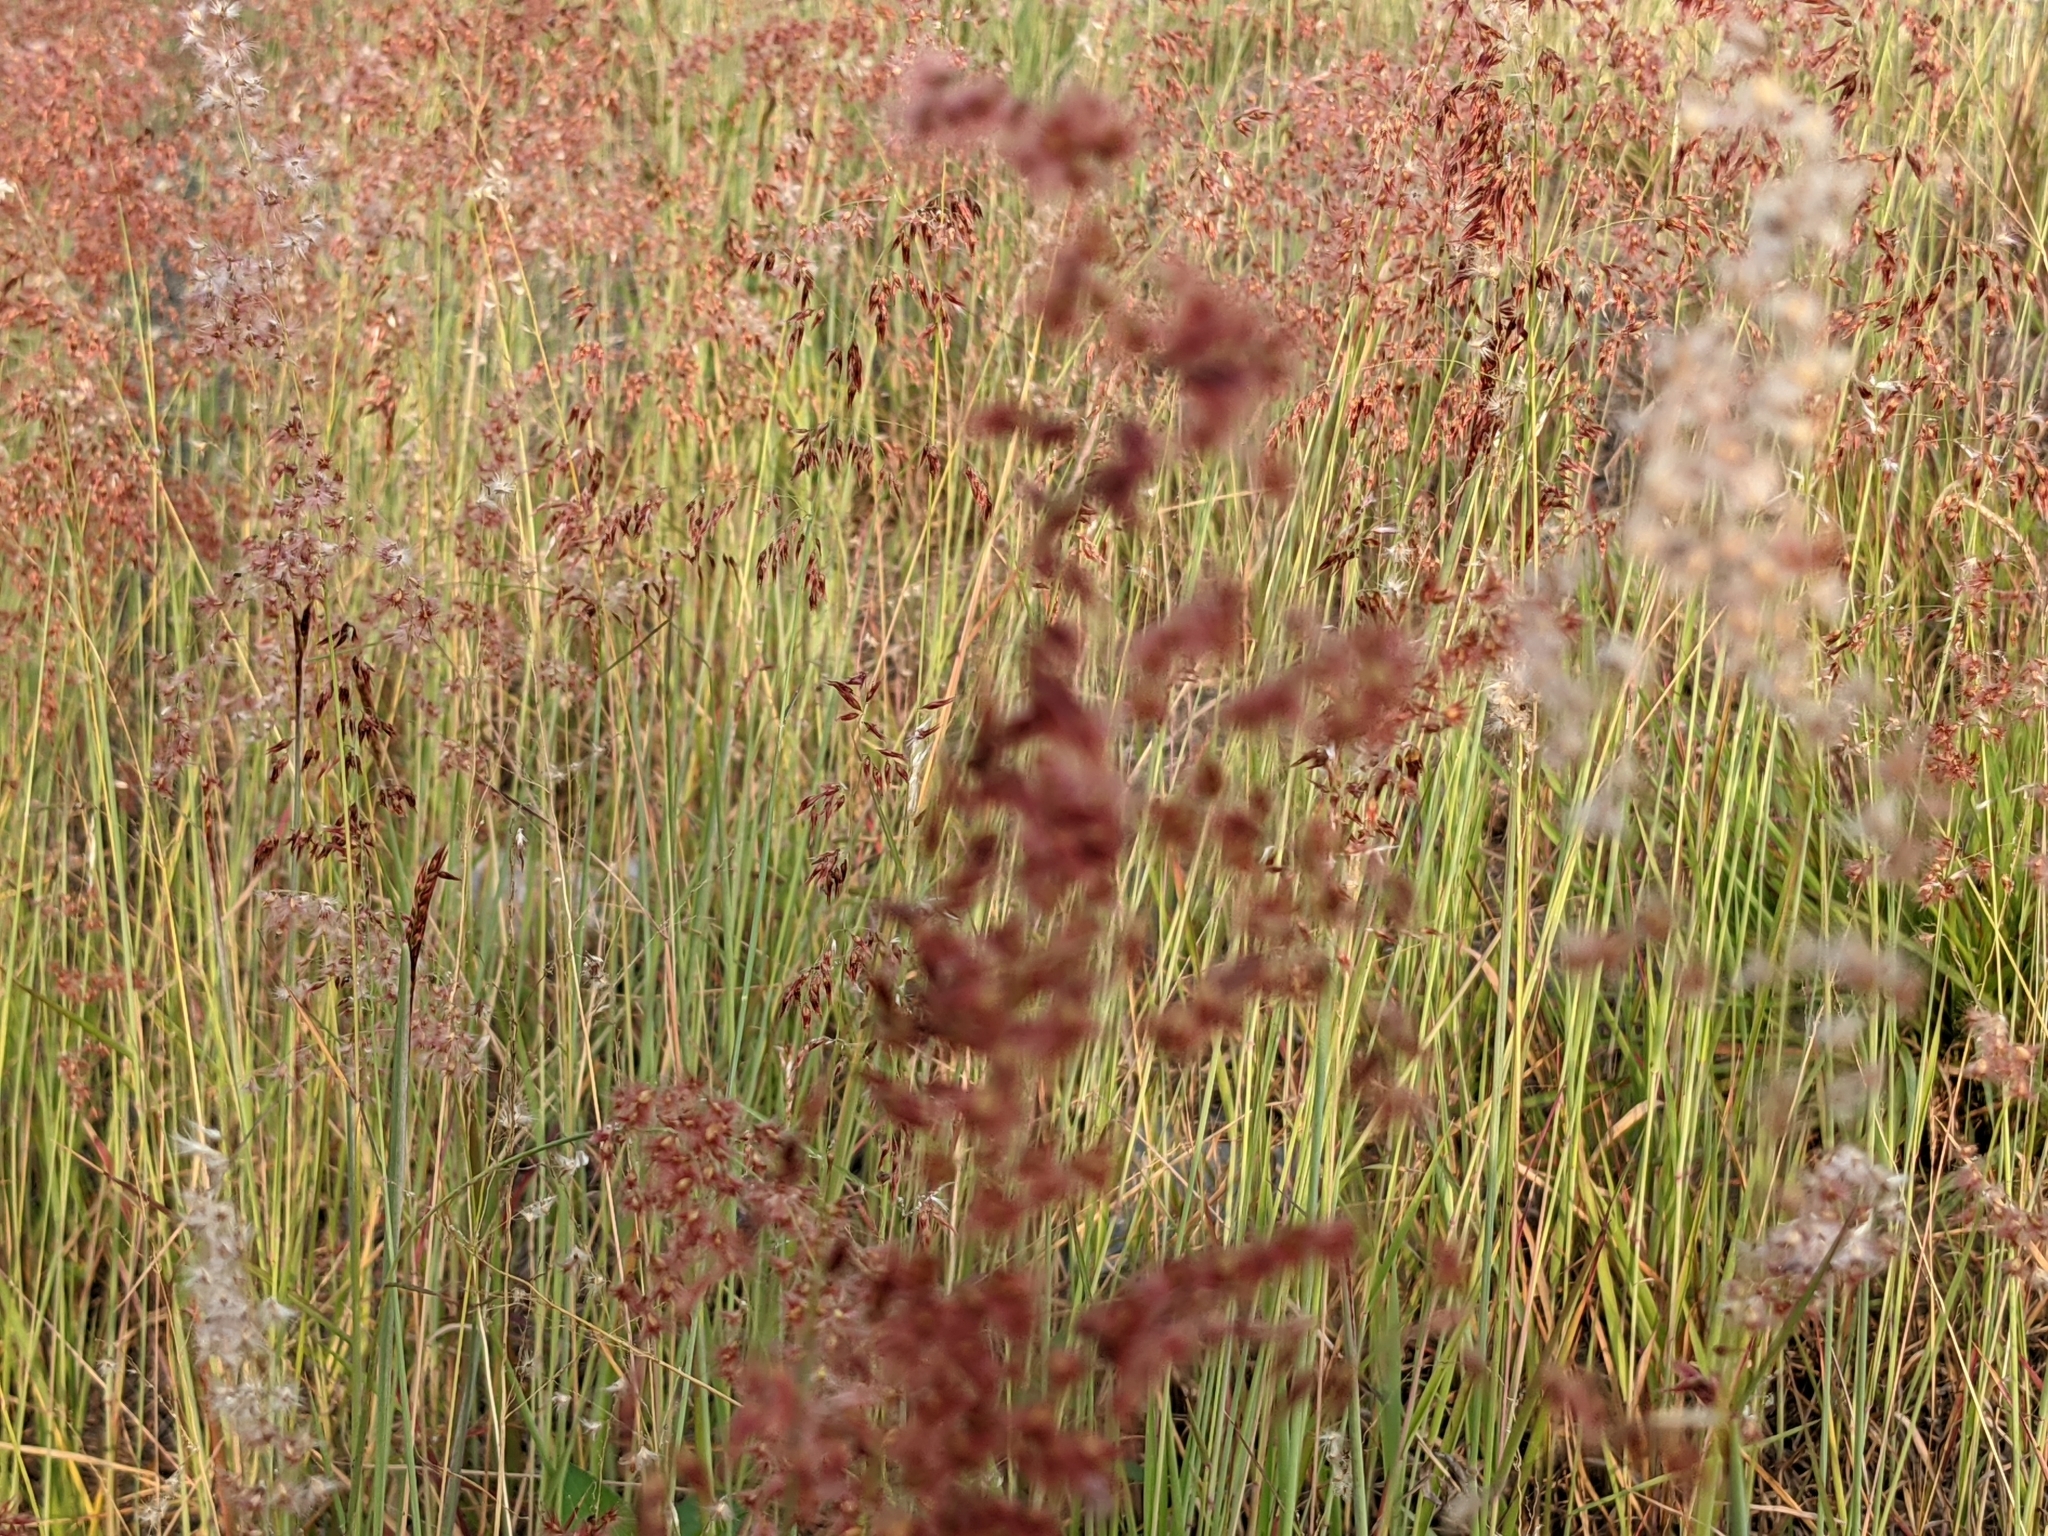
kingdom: Plantae
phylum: Tracheophyta
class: Liliopsida
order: Poales
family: Poaceae
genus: Melinis
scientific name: Melinis repens
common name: Rose natal grass
